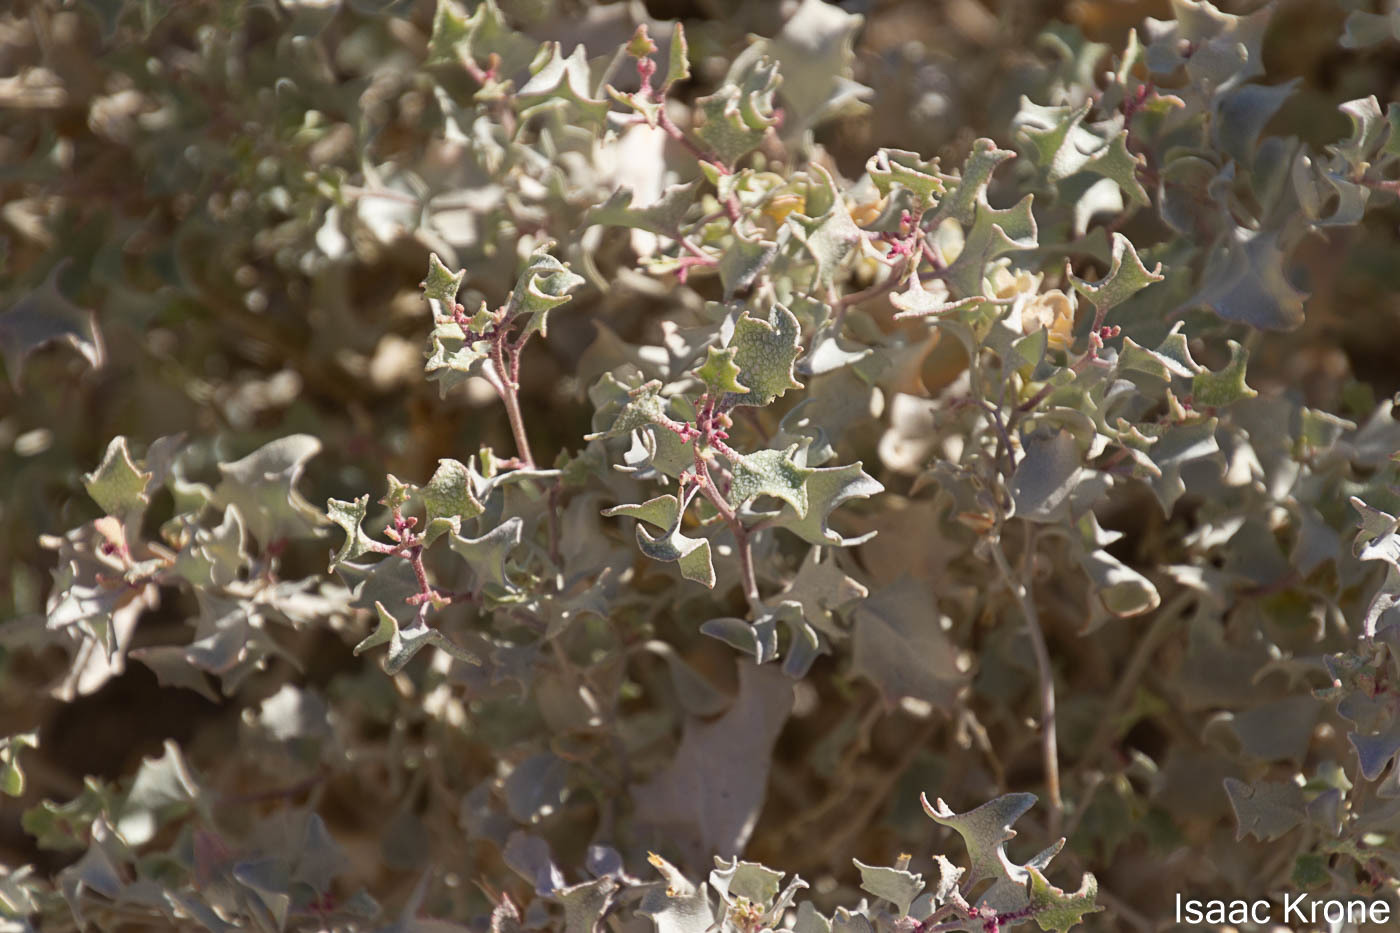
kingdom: Plantae
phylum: Tracheophyta
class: Magnoliopsida
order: Caryophyllales
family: Amaranthaceae
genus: Atriplex
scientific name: Atriplex hymenelytra
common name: Desert-holly
